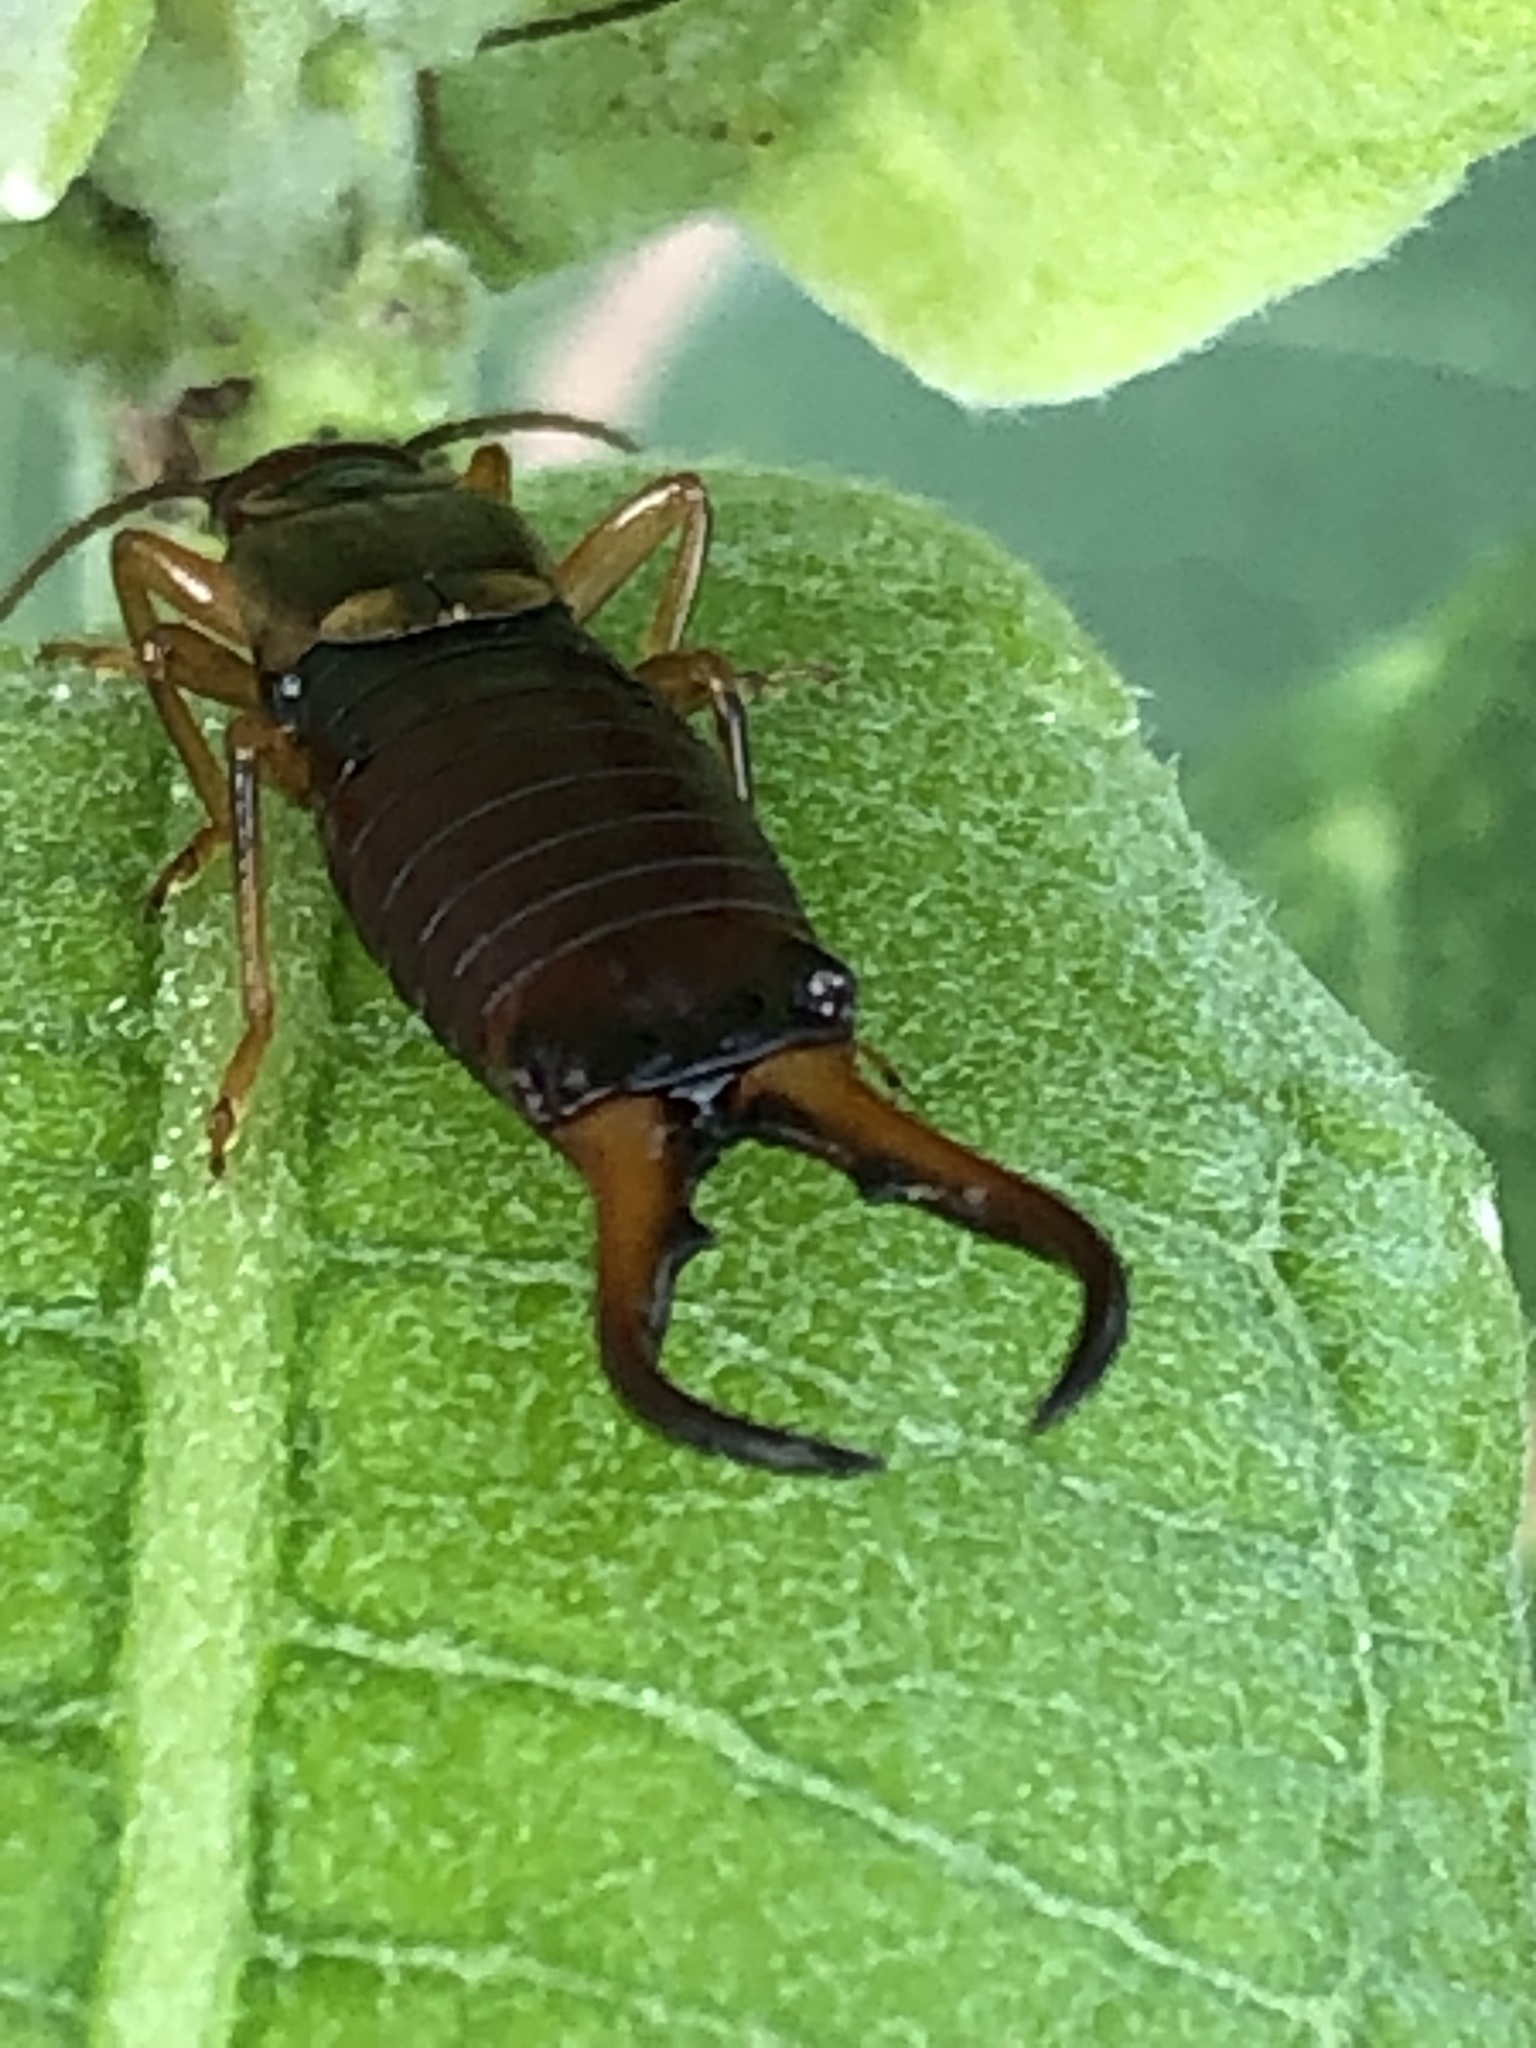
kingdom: Animalia
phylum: Arthropoda
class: Insecta
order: Dermaptera
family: Forficulidae
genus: Forficula
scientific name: Forficula
